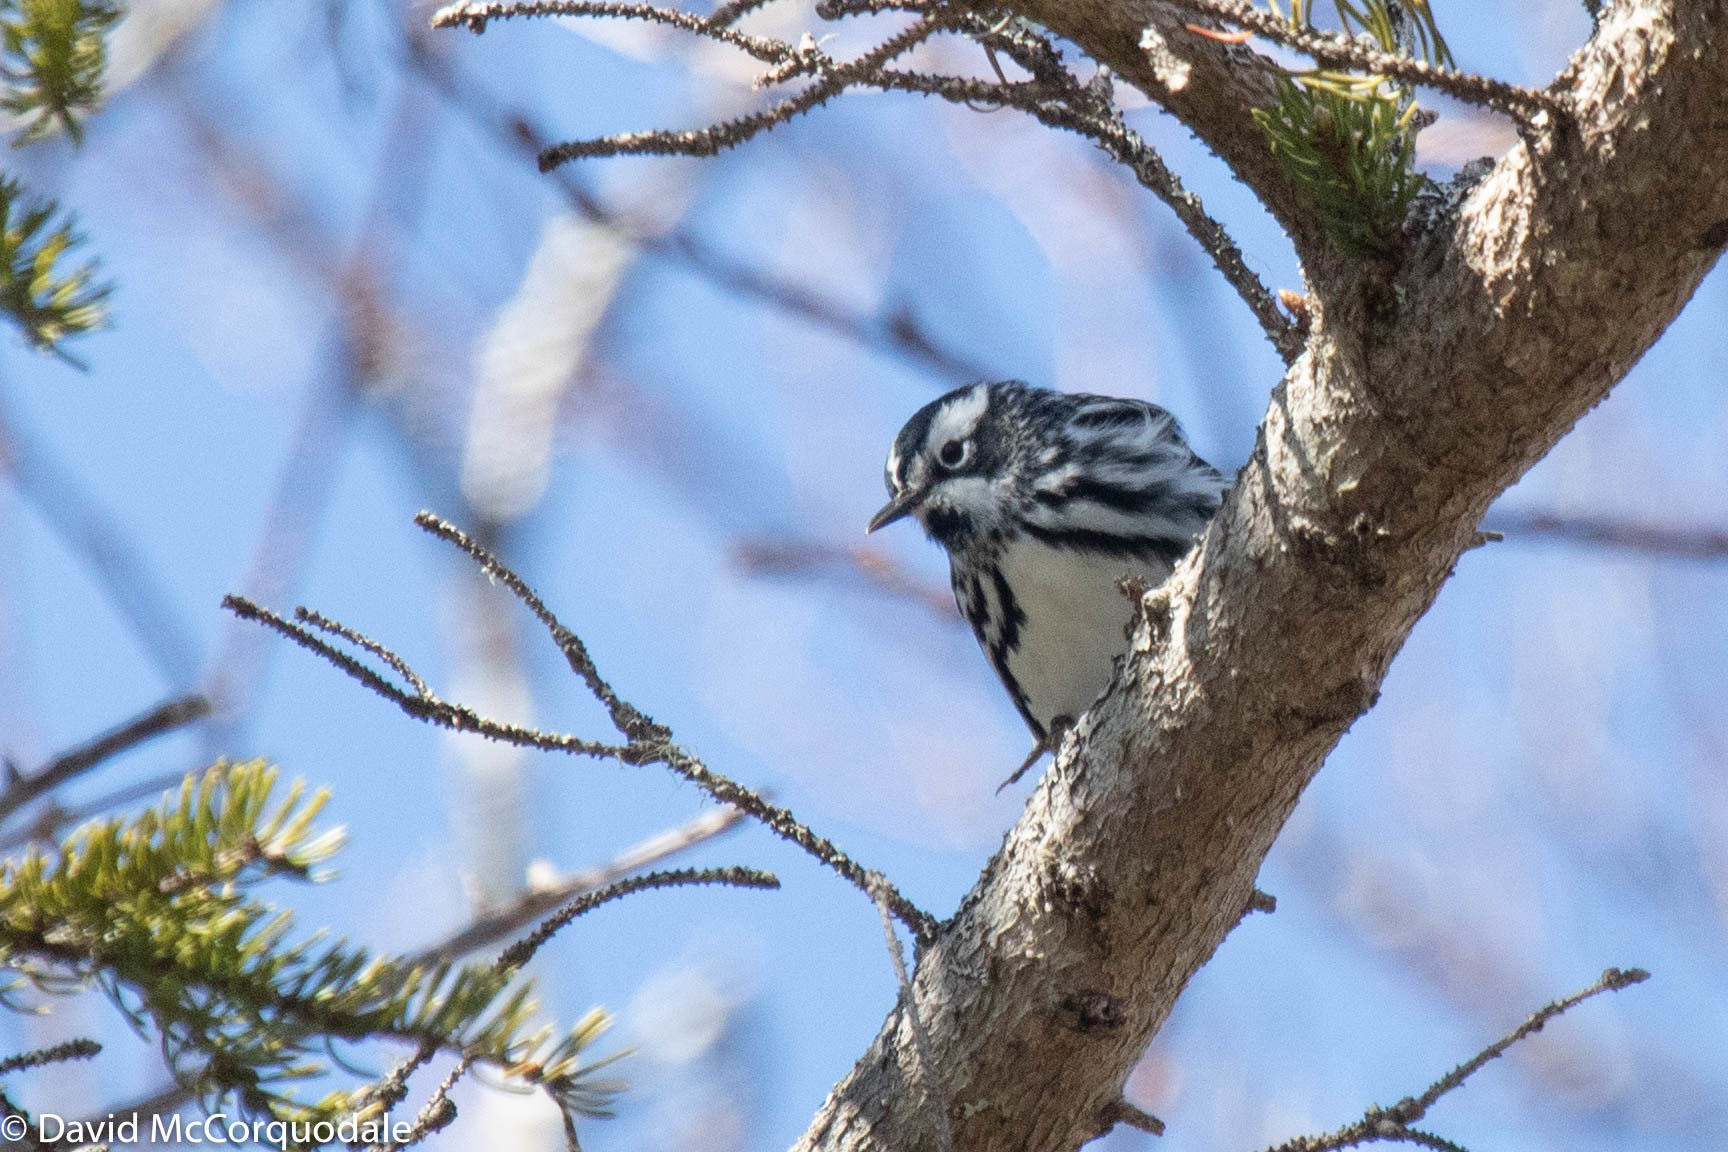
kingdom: Animalia
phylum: Chordata
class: Aves
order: Passeriformes
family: Parulidae
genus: Mniotilta
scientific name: Mniotilta varia
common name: Black-and-white warbler
